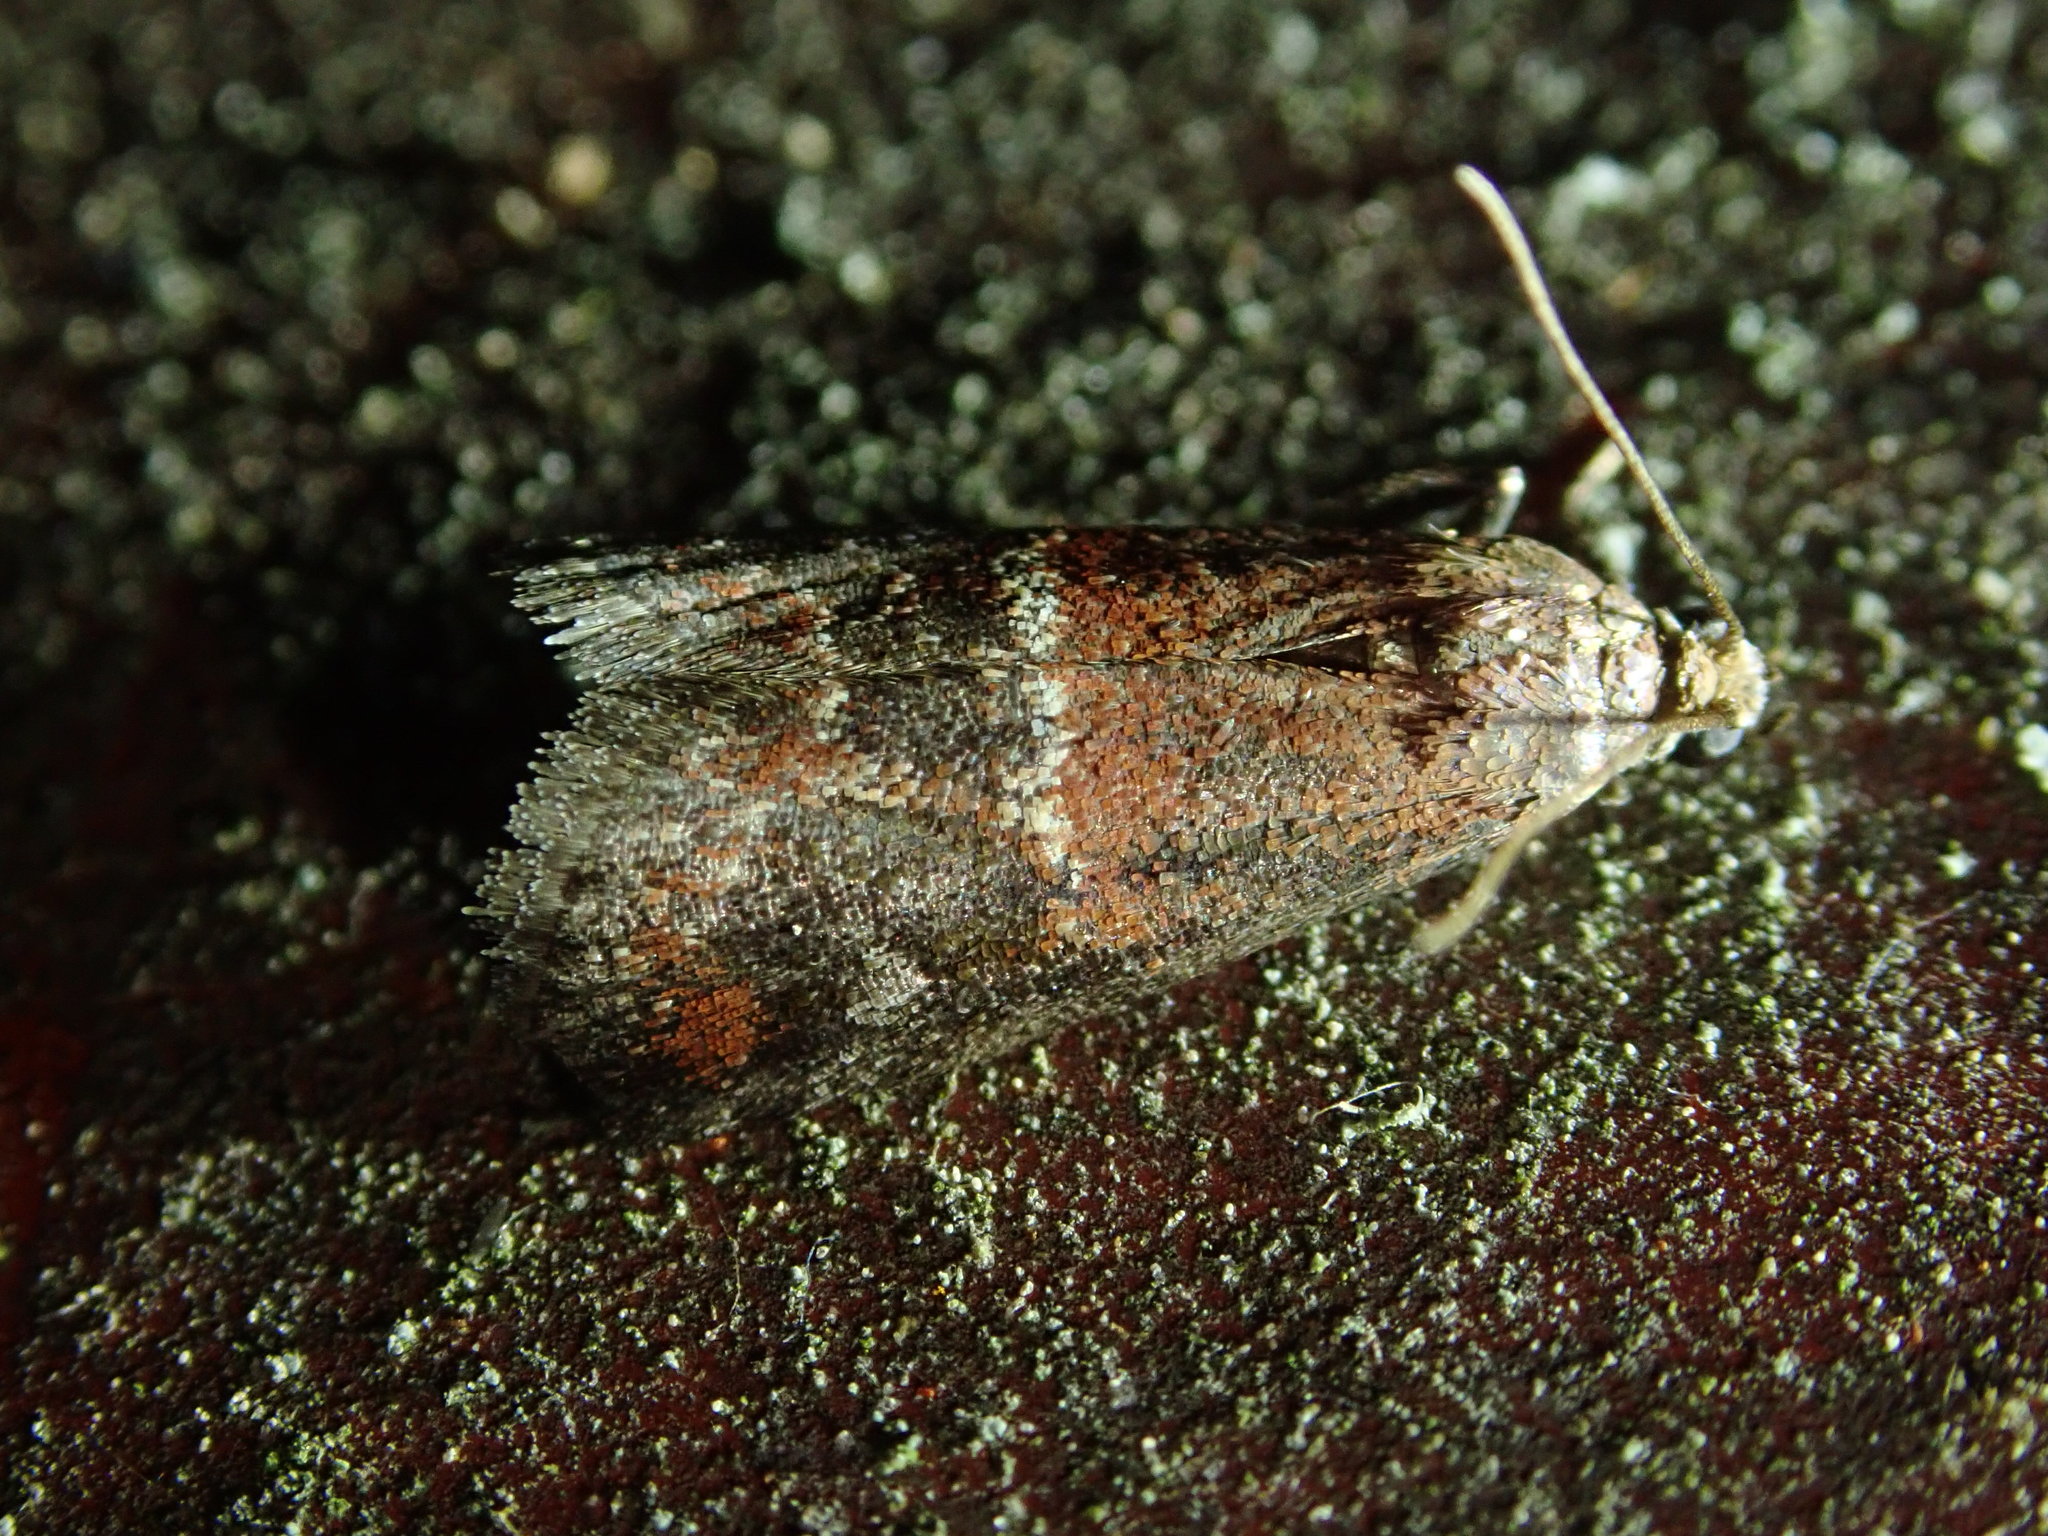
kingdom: Animalia
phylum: Arthropoda
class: Insecta
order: Lepidoptera
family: Pyralidae
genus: Acrobasis
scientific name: Acrobasis marmorea
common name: Marbled knot-horn
